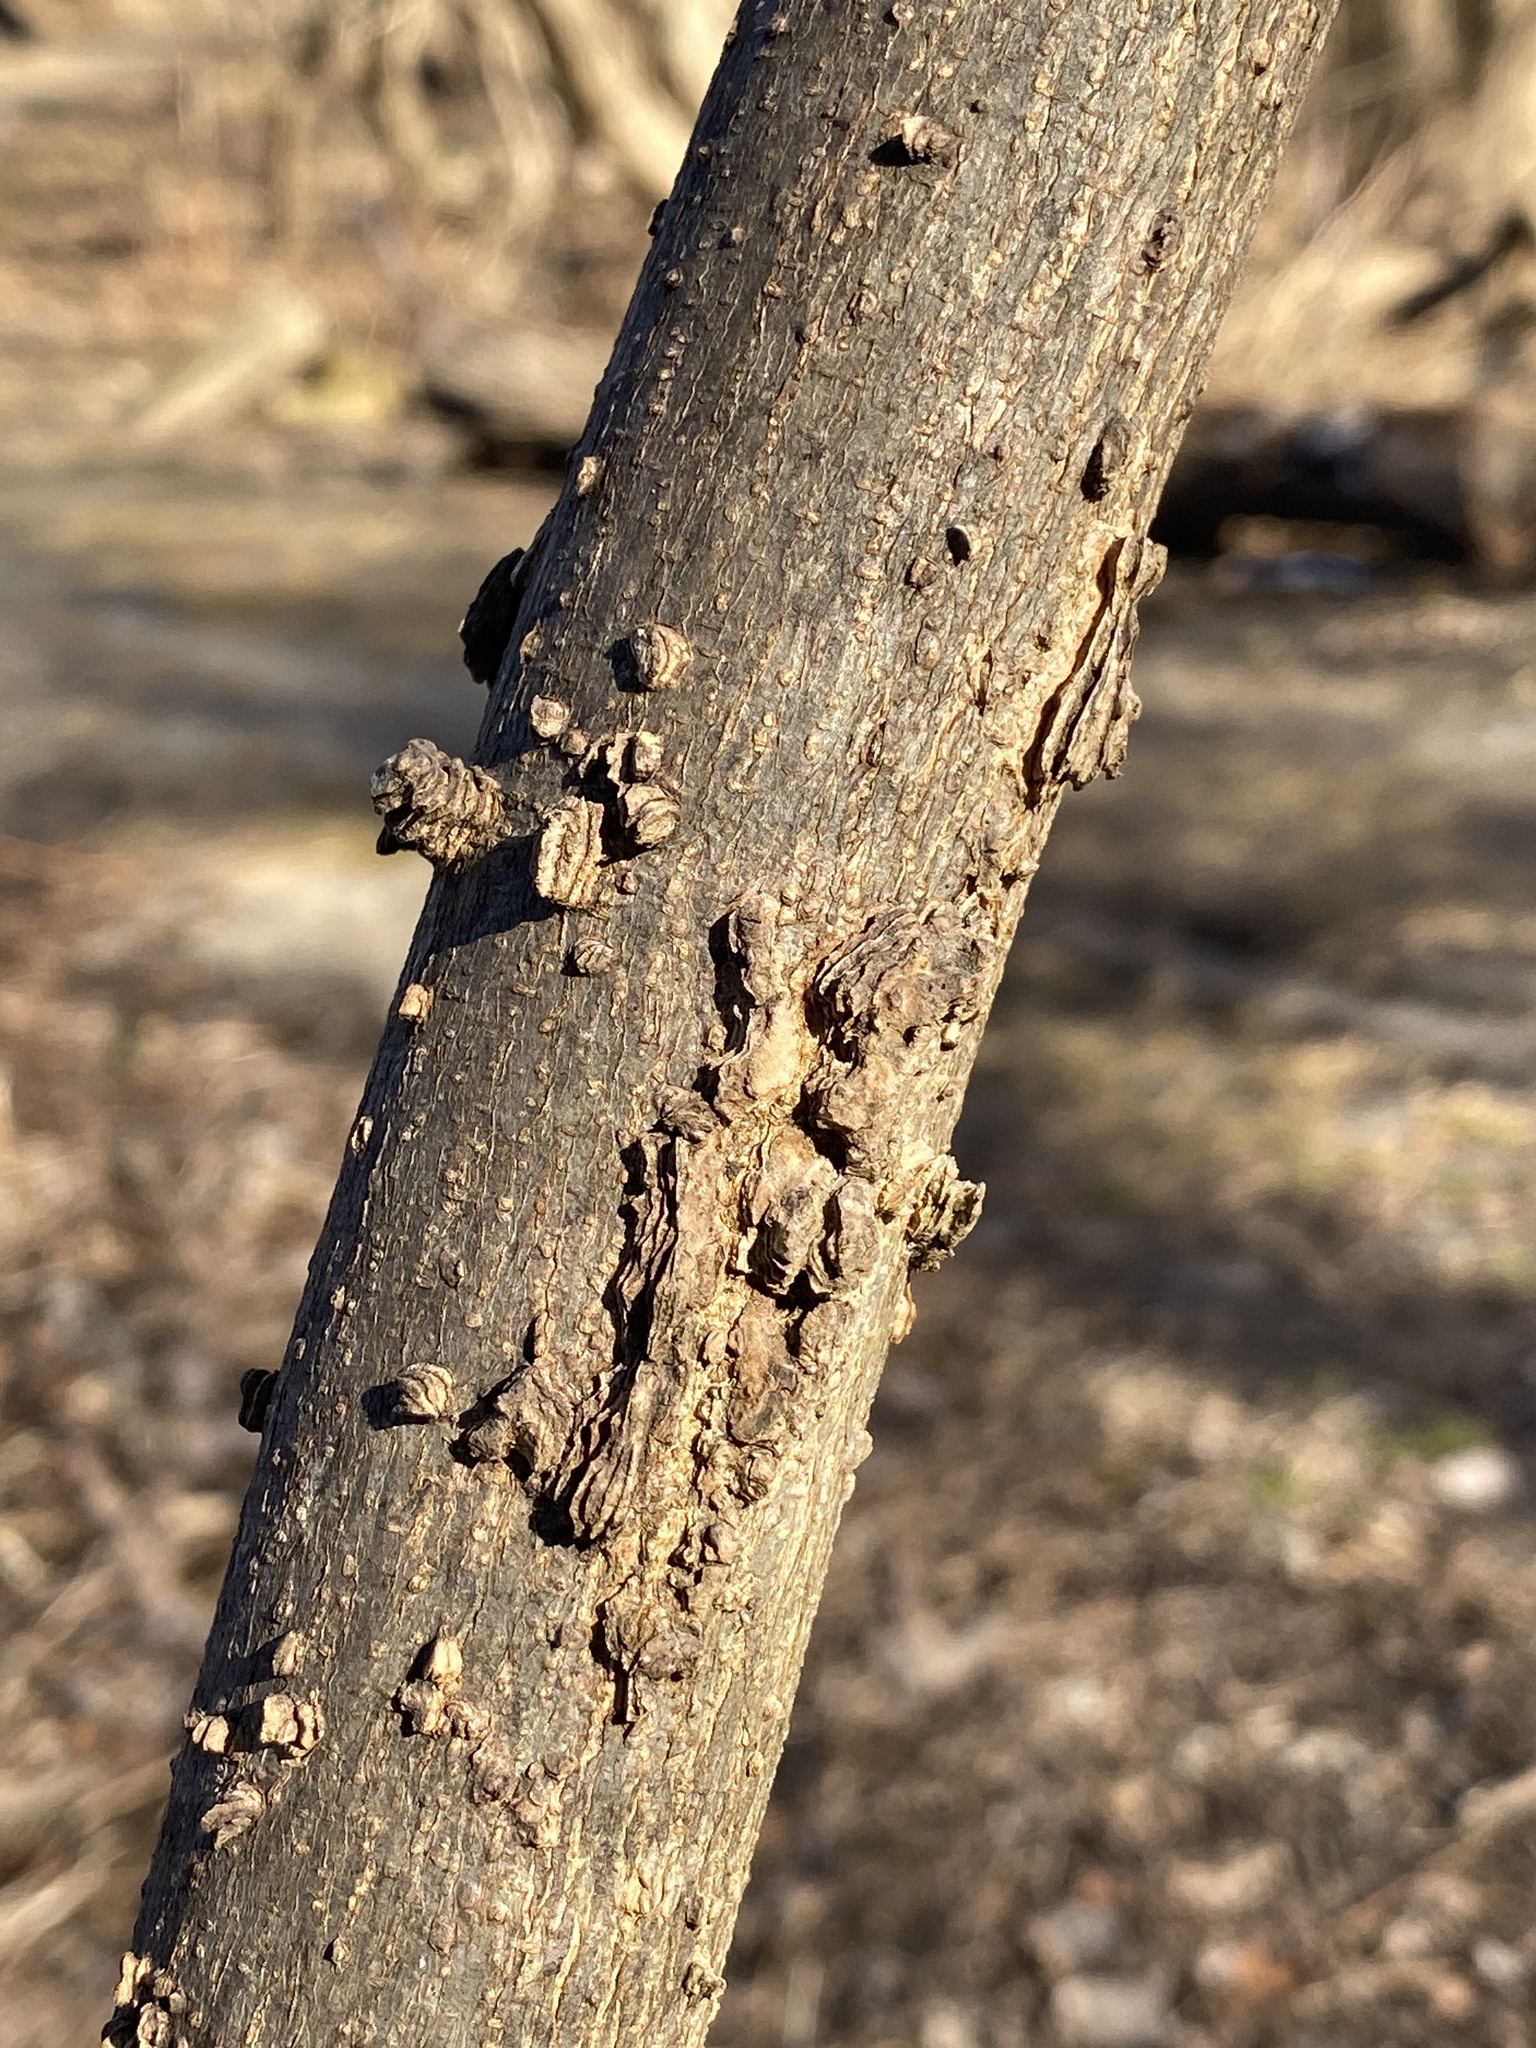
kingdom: Animalia
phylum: Arthropoda
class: Insecta
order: Hemiptera
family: Aphalaridae
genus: Pachypsylla
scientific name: Pachypsylla venusta
